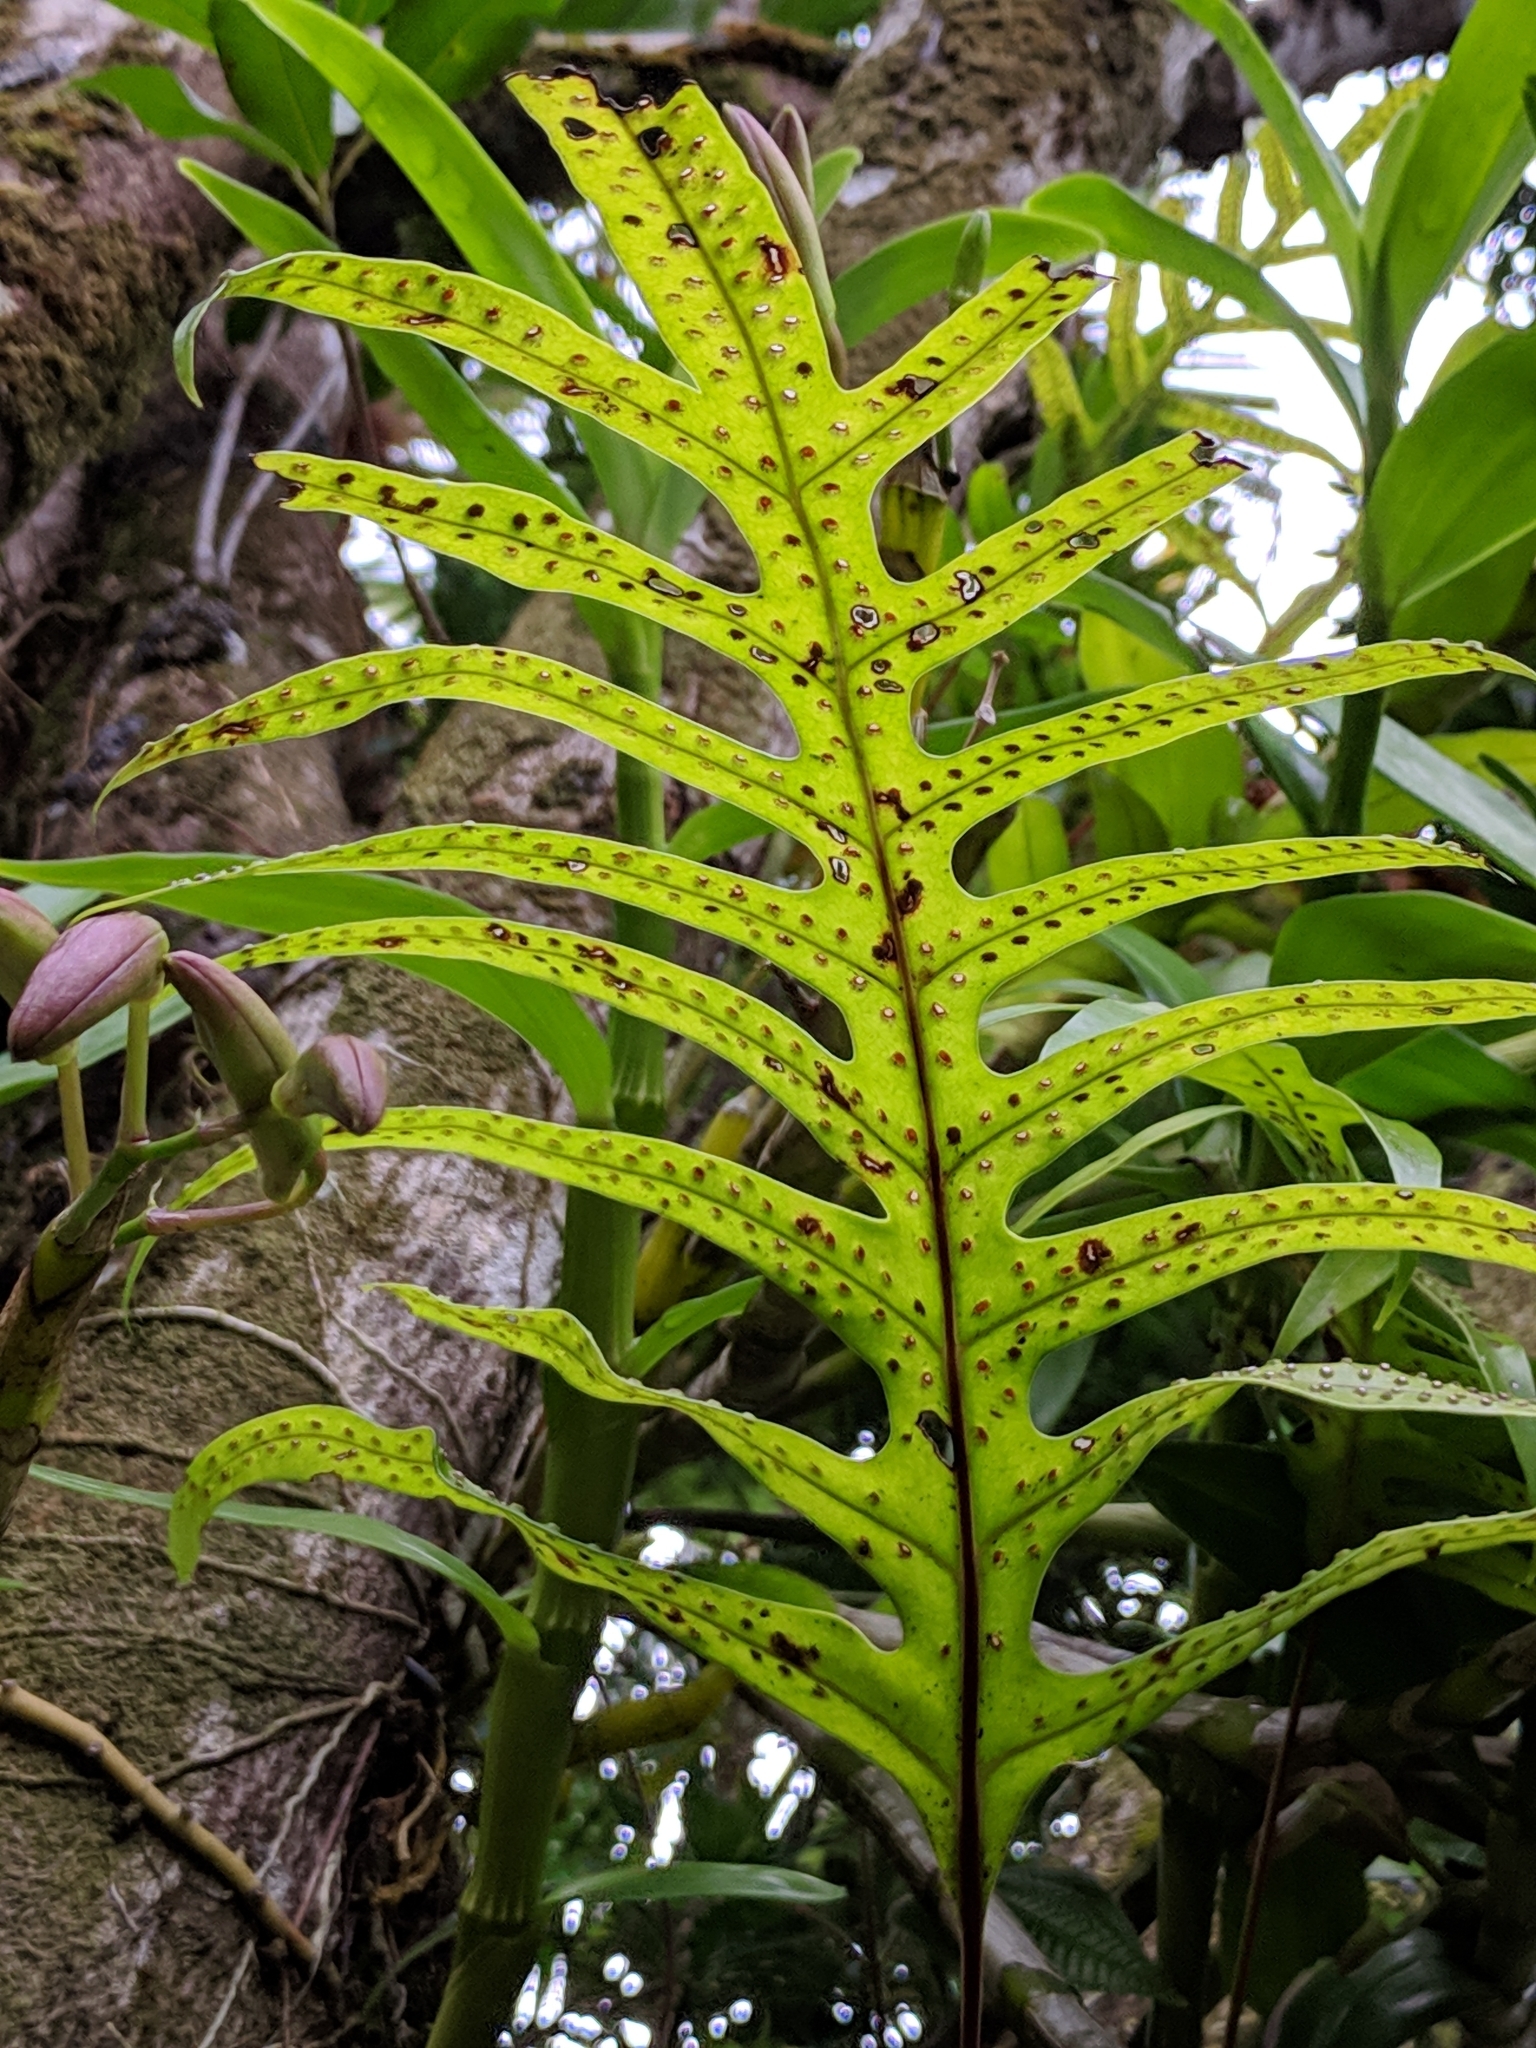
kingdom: Plantae
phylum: Tracheophyta
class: Polypodiopsida
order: Polypodiales
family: Polypodiaceae
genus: Microsorum
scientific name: Microsorum scolopendria
